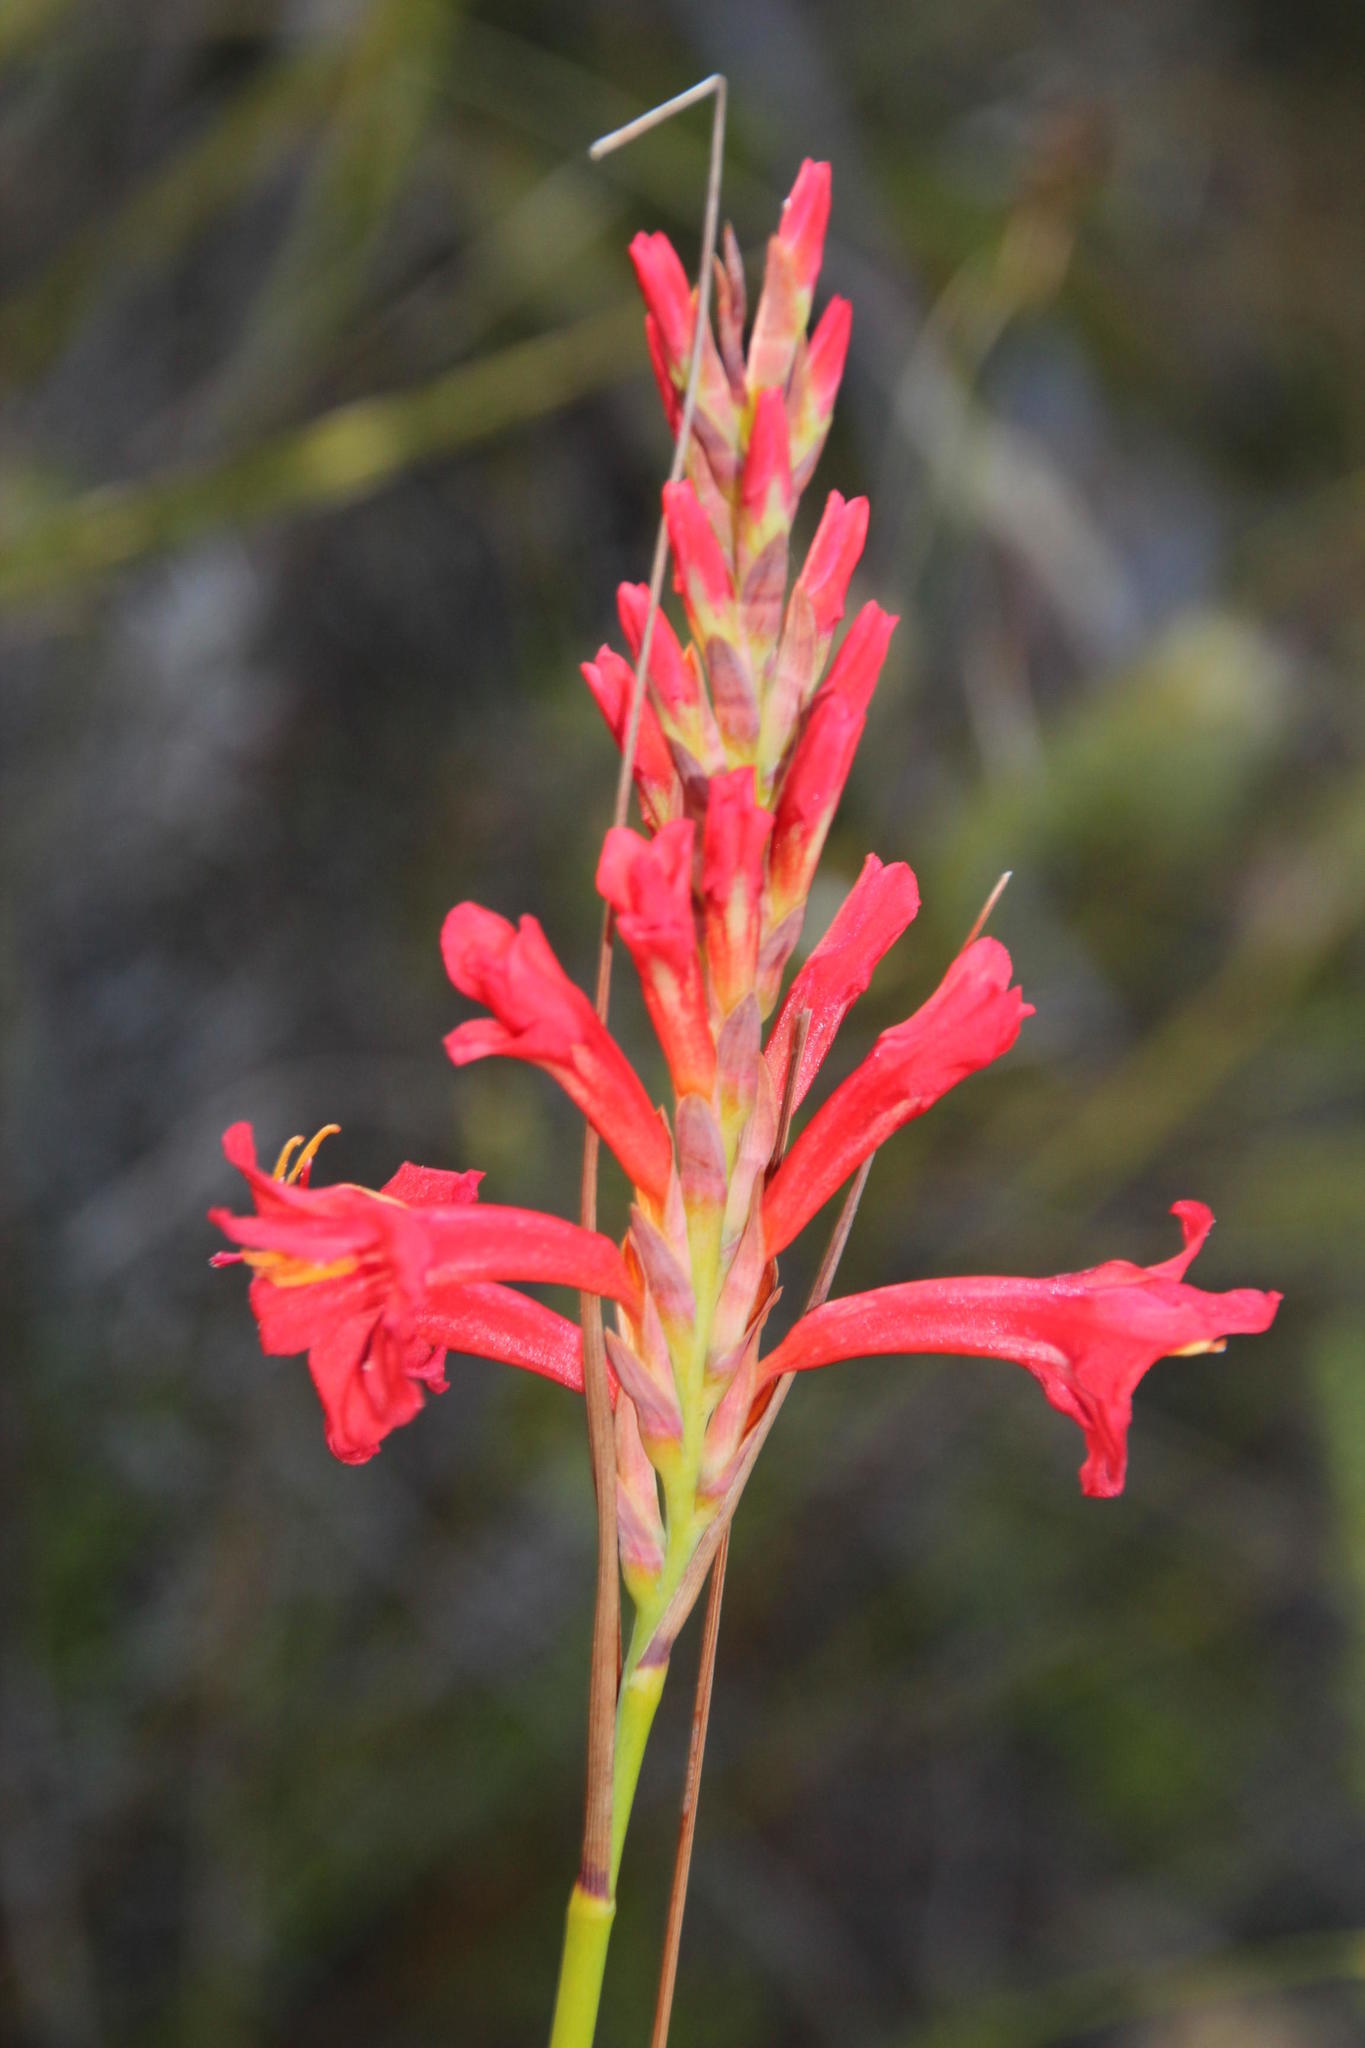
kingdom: Plantae
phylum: Tracheophyta
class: Liliopsida
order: Asparagales
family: Iridaceae
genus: Tritoniopsis
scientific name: Tritoniopsis triticea
